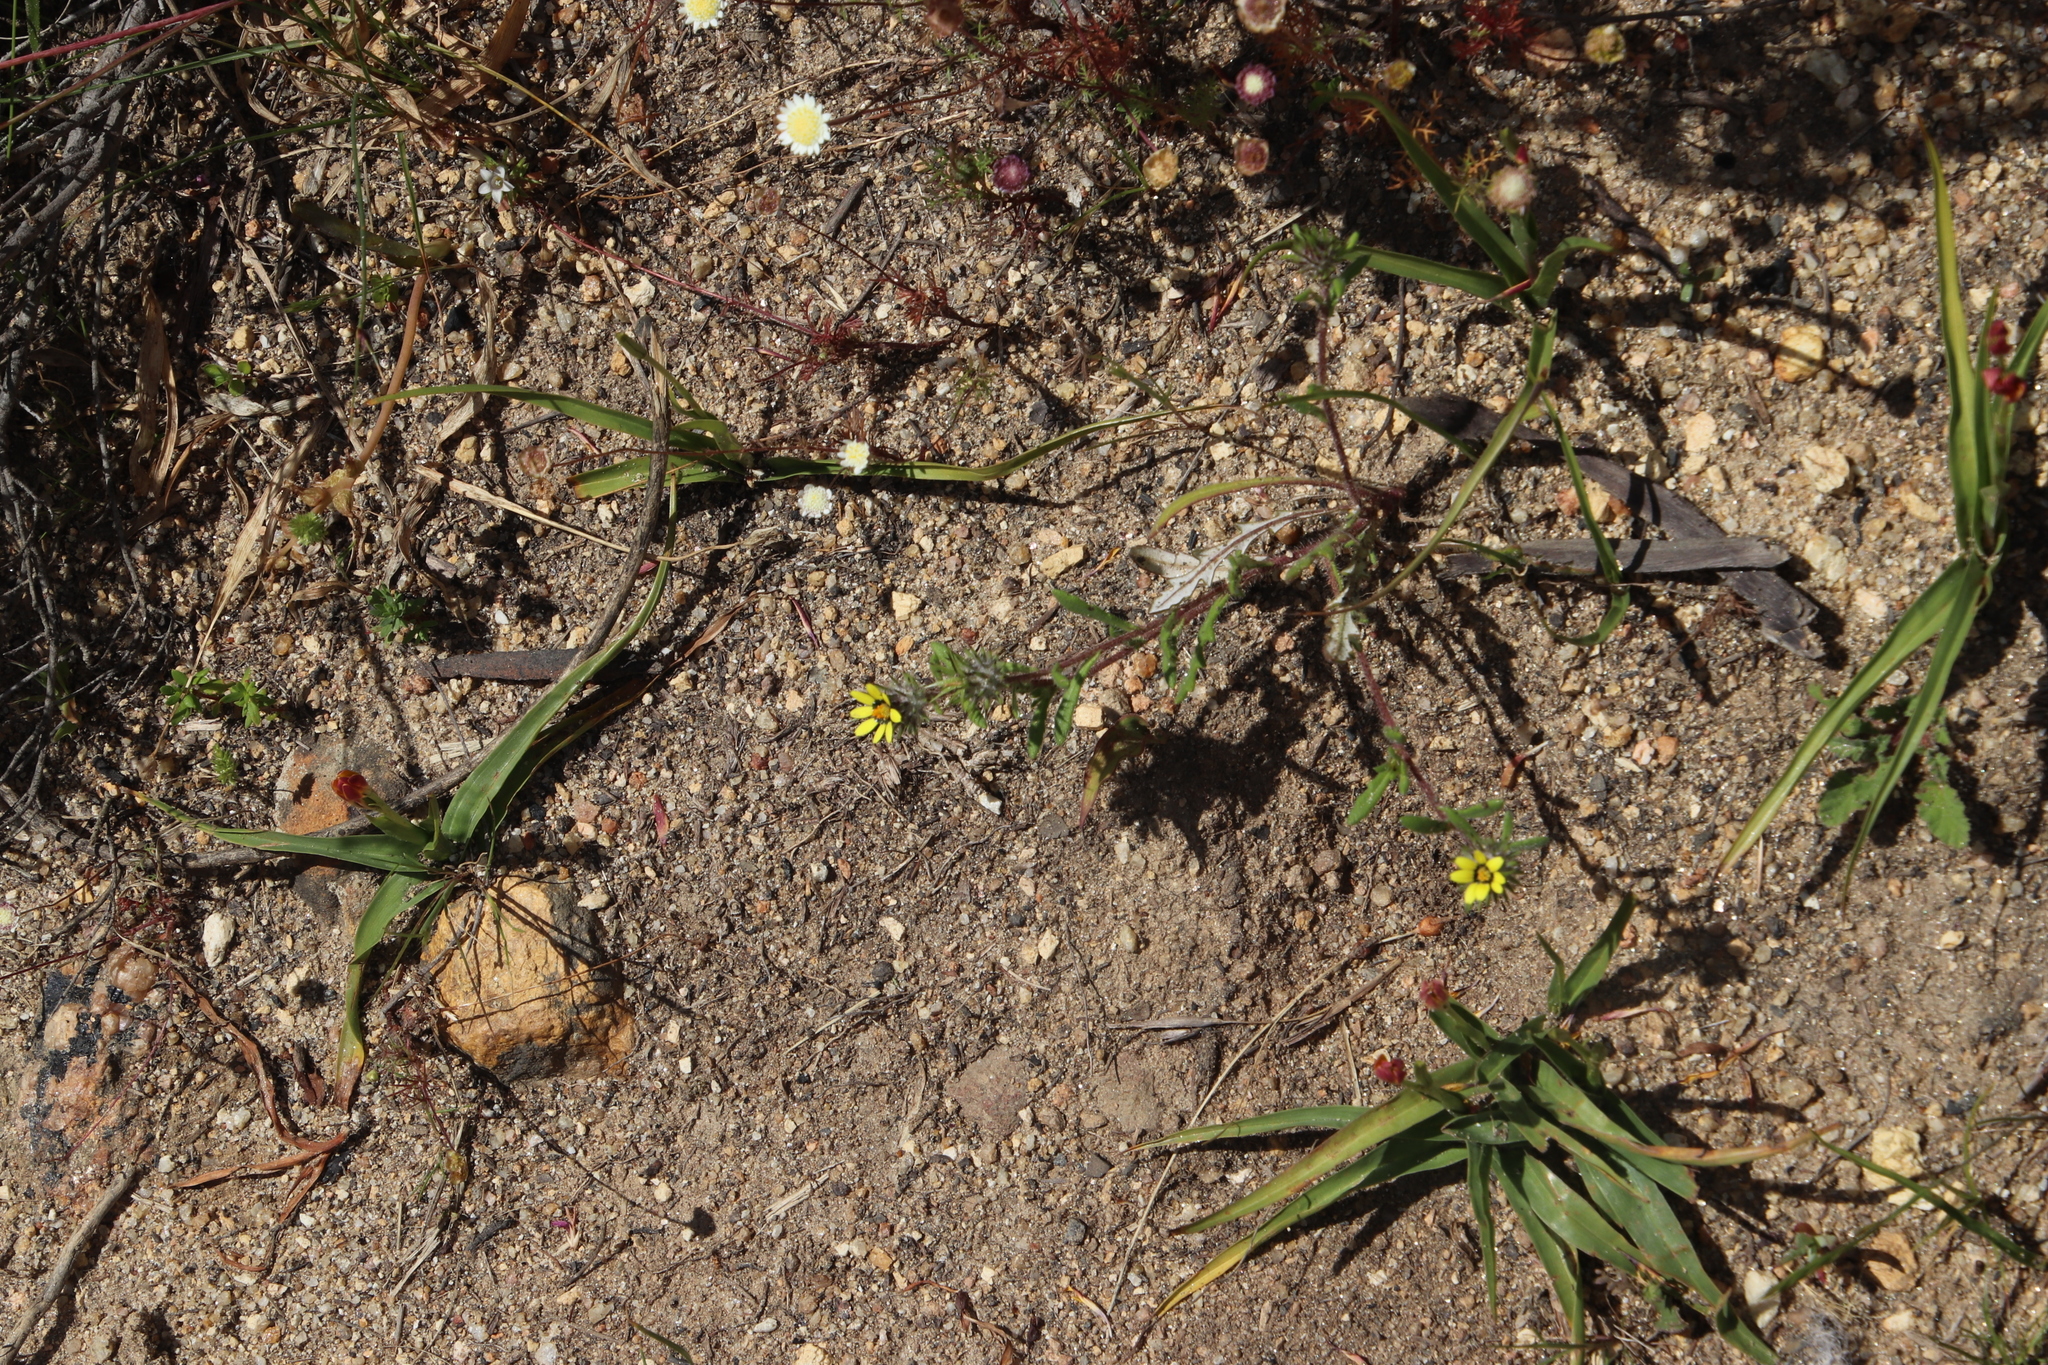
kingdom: Plantae
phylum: Tracheophyta
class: Magnoliopsida
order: Asterales
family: Asteraceae
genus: Gorteria
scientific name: Gorteria personata
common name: Gorteria
